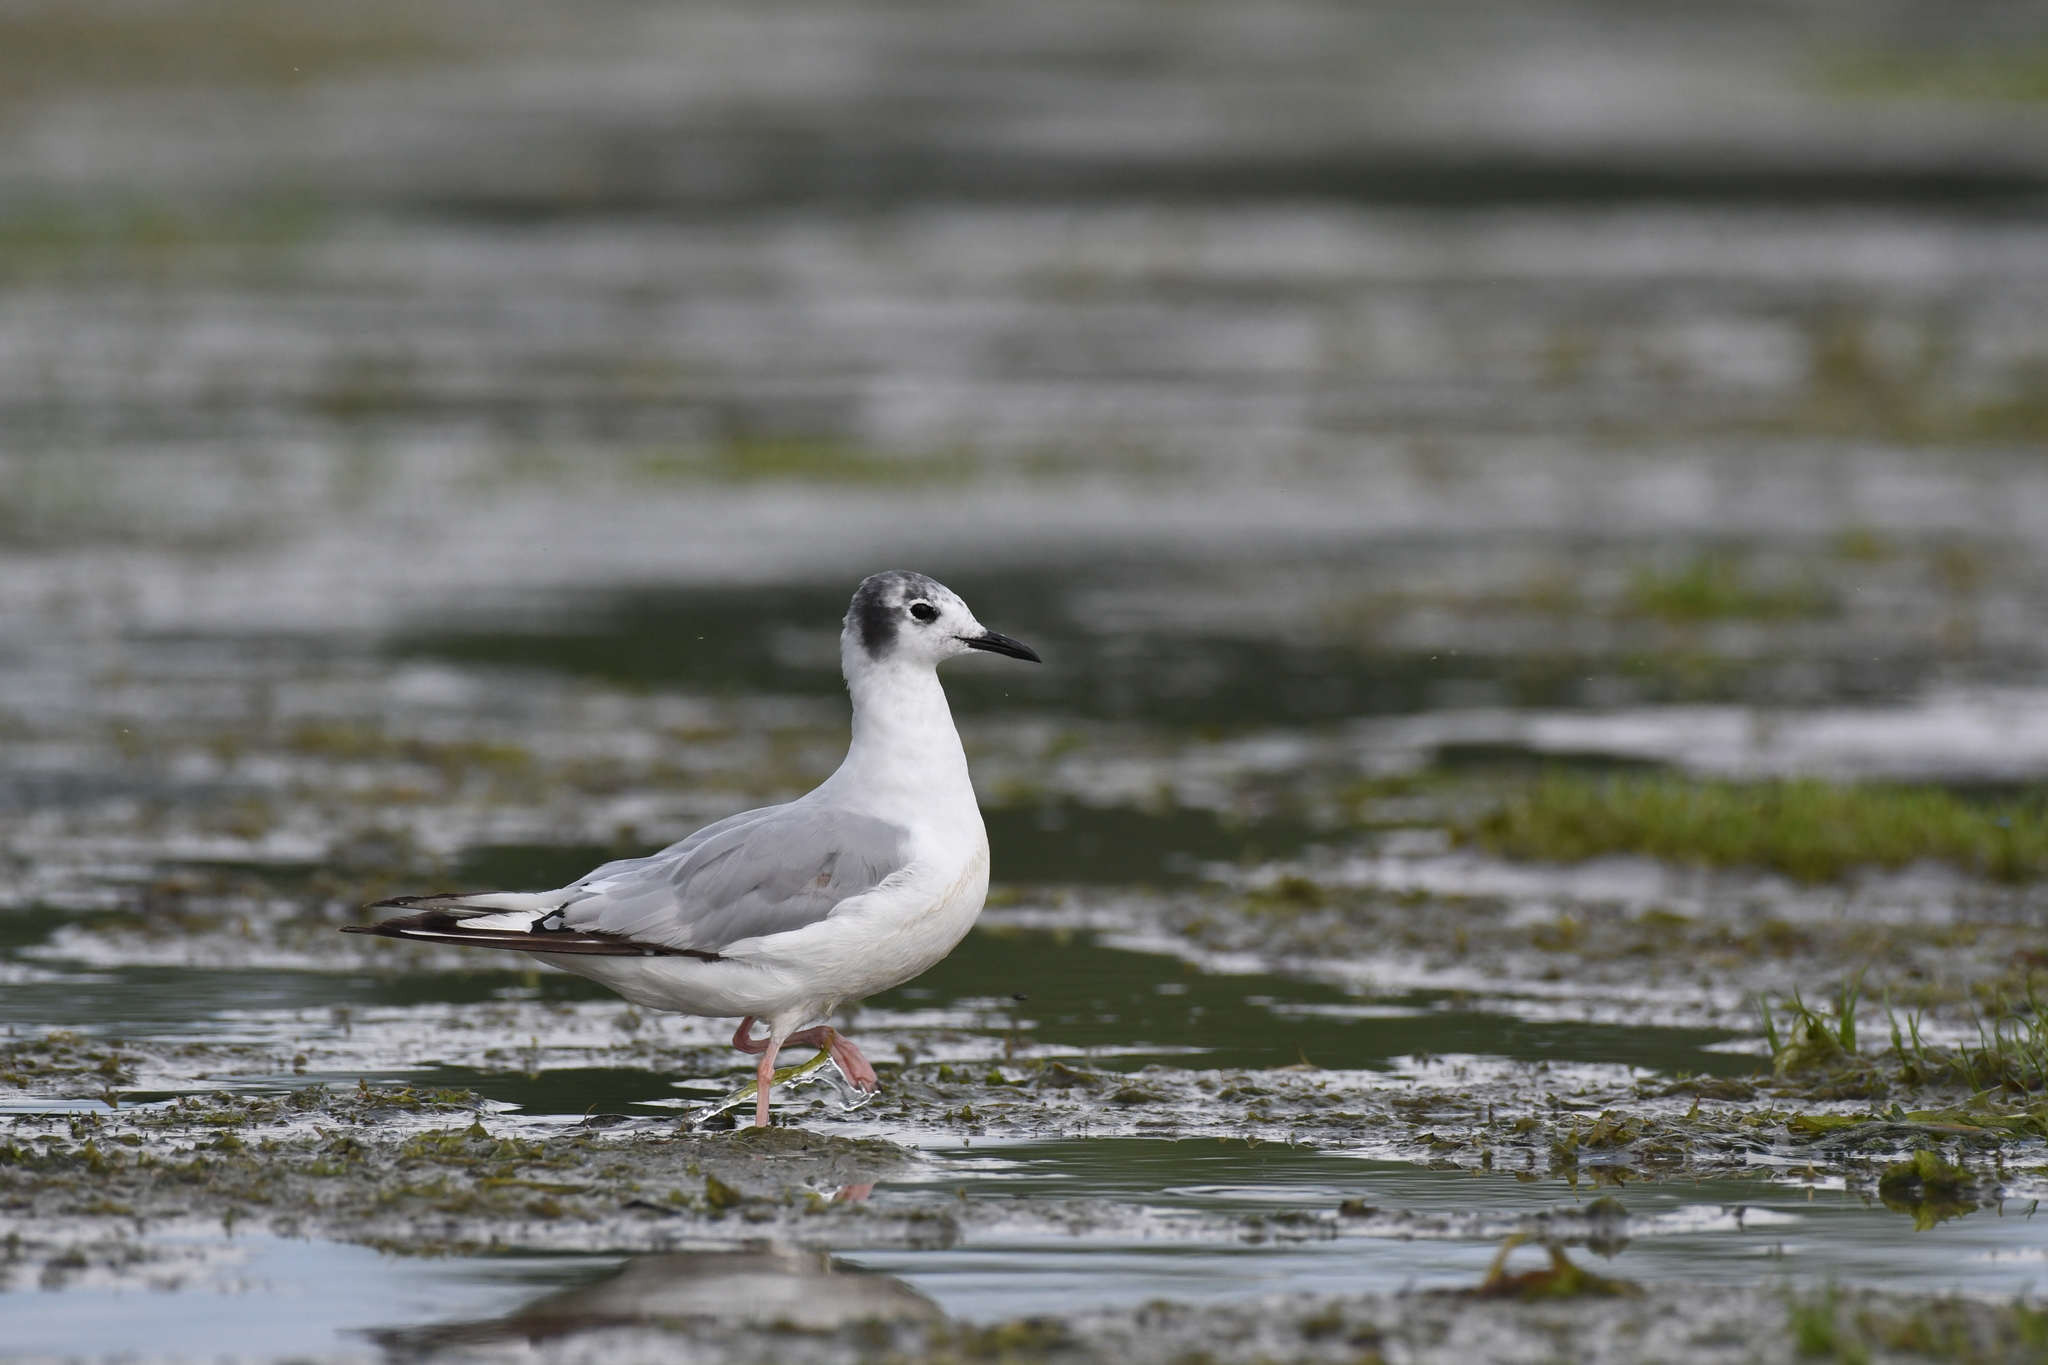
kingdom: Animalia
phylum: Chordata
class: Aves
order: Charadriiformes
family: Laridae
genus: Chroicocephalus
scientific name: Chroicocephalus philadelphia
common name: Bonaparte's gull
